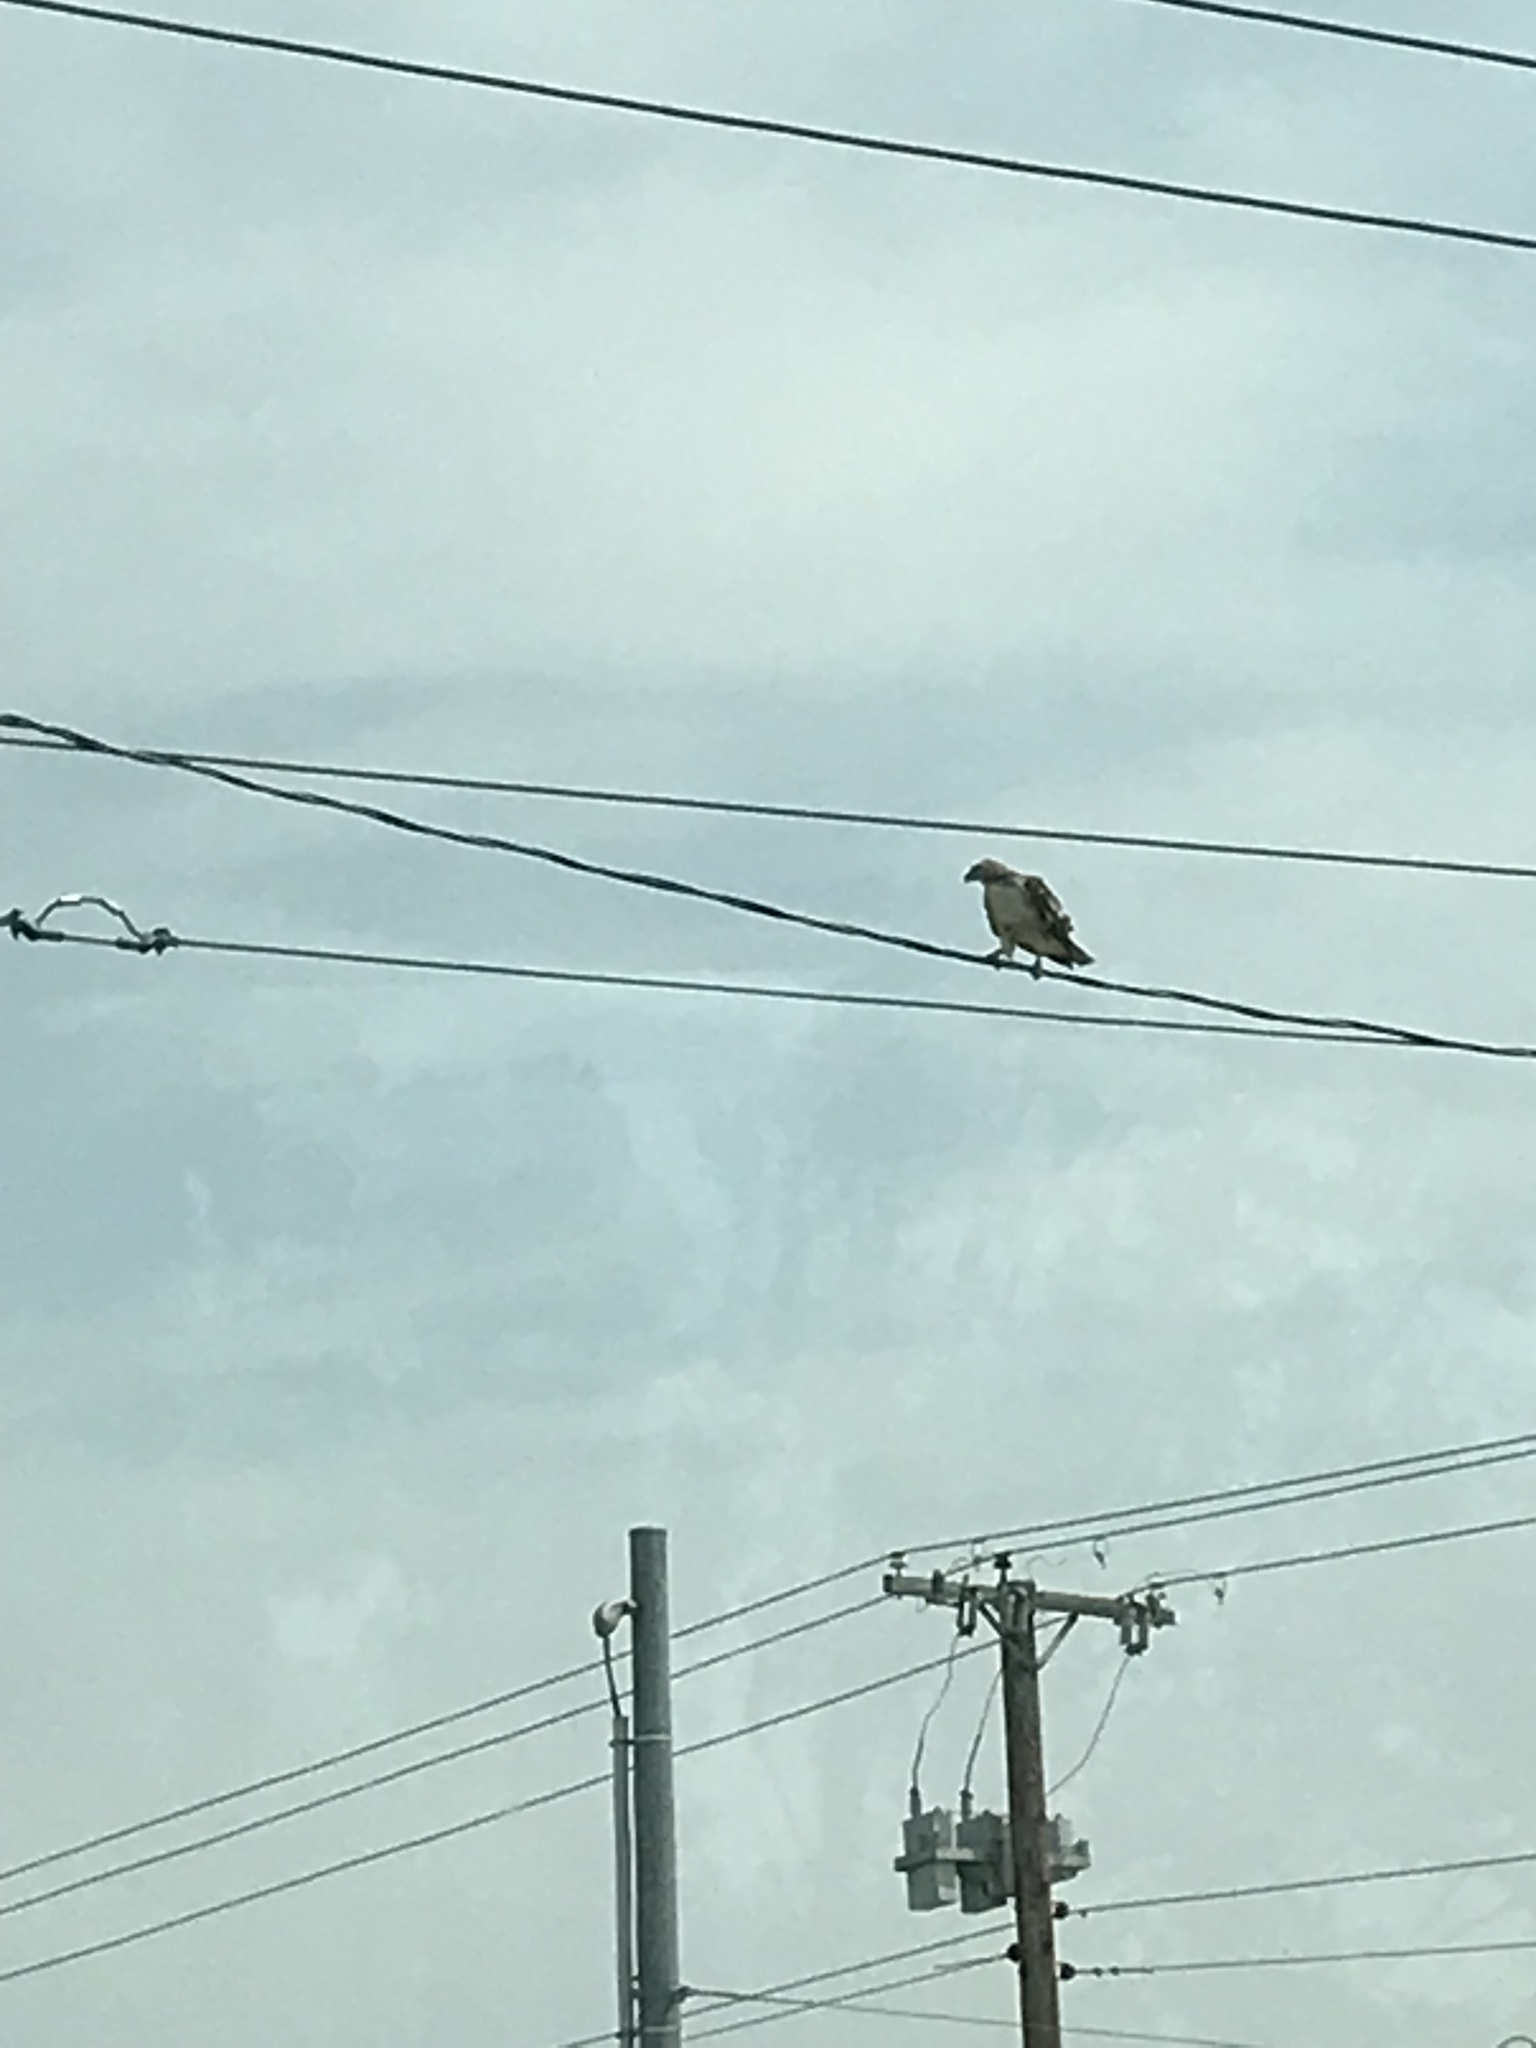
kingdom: Animalia
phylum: Chordata
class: Aves
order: Accipitriformes
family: Accipitridae
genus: Buteo
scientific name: Buteo jamaicensis
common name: Red-tailed hawk
